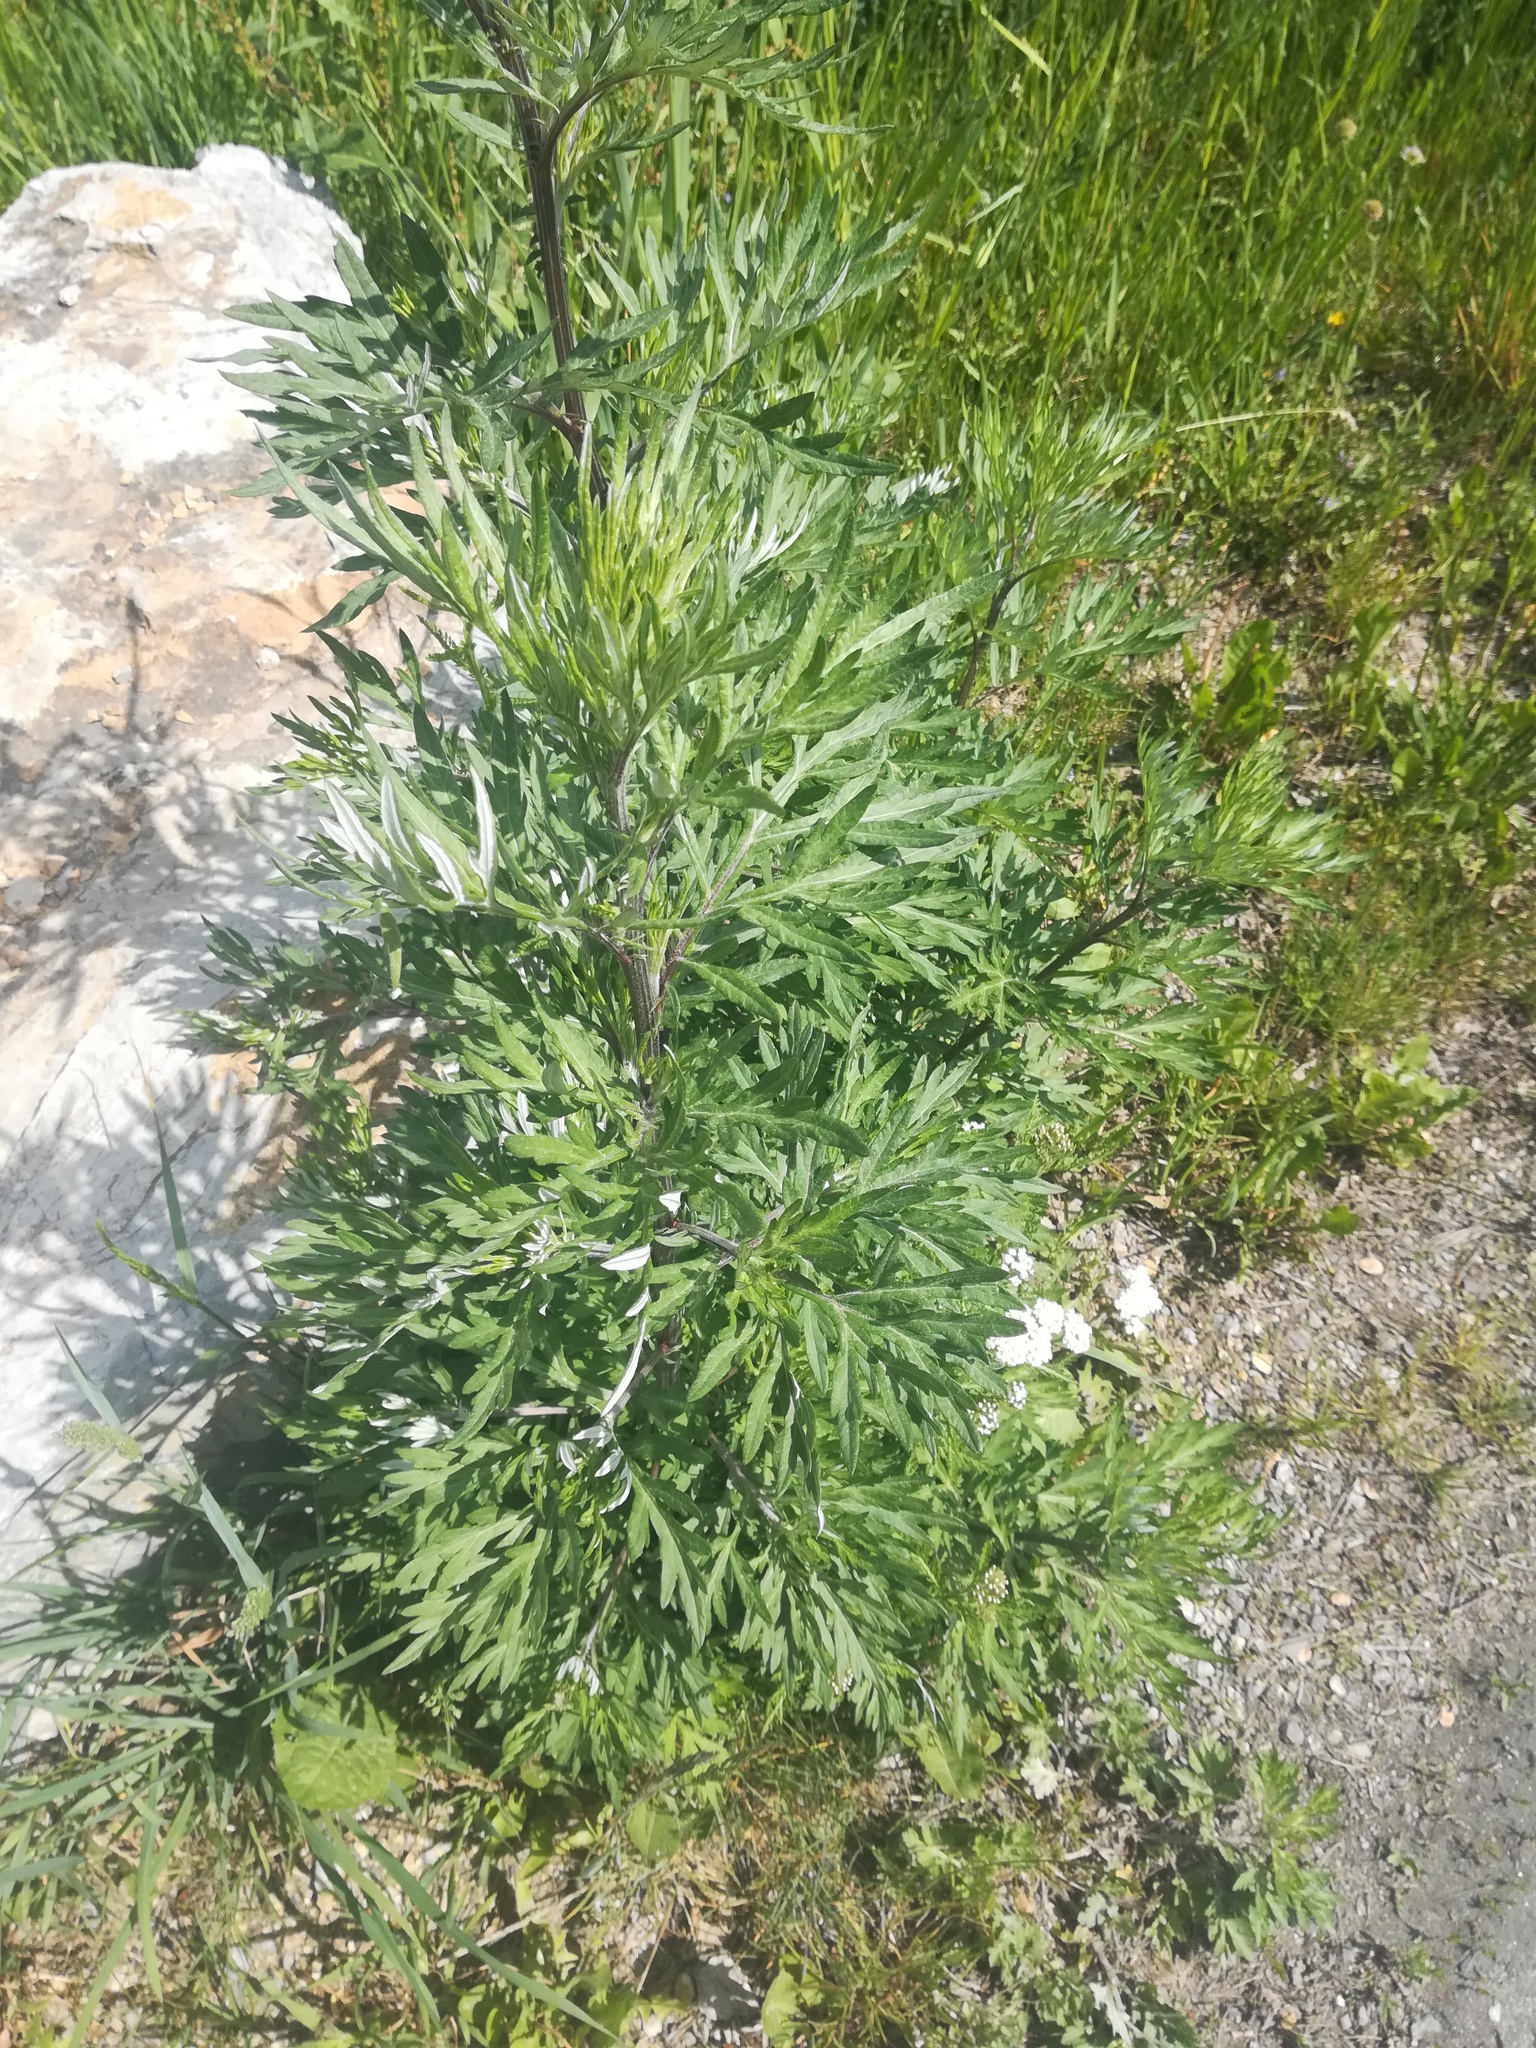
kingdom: Plantae
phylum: Tracheophyta
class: Magnoliopsida
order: Asterales
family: Asteraceae
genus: Artemisia
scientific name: Artemisia vulgaris
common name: Mugwort
